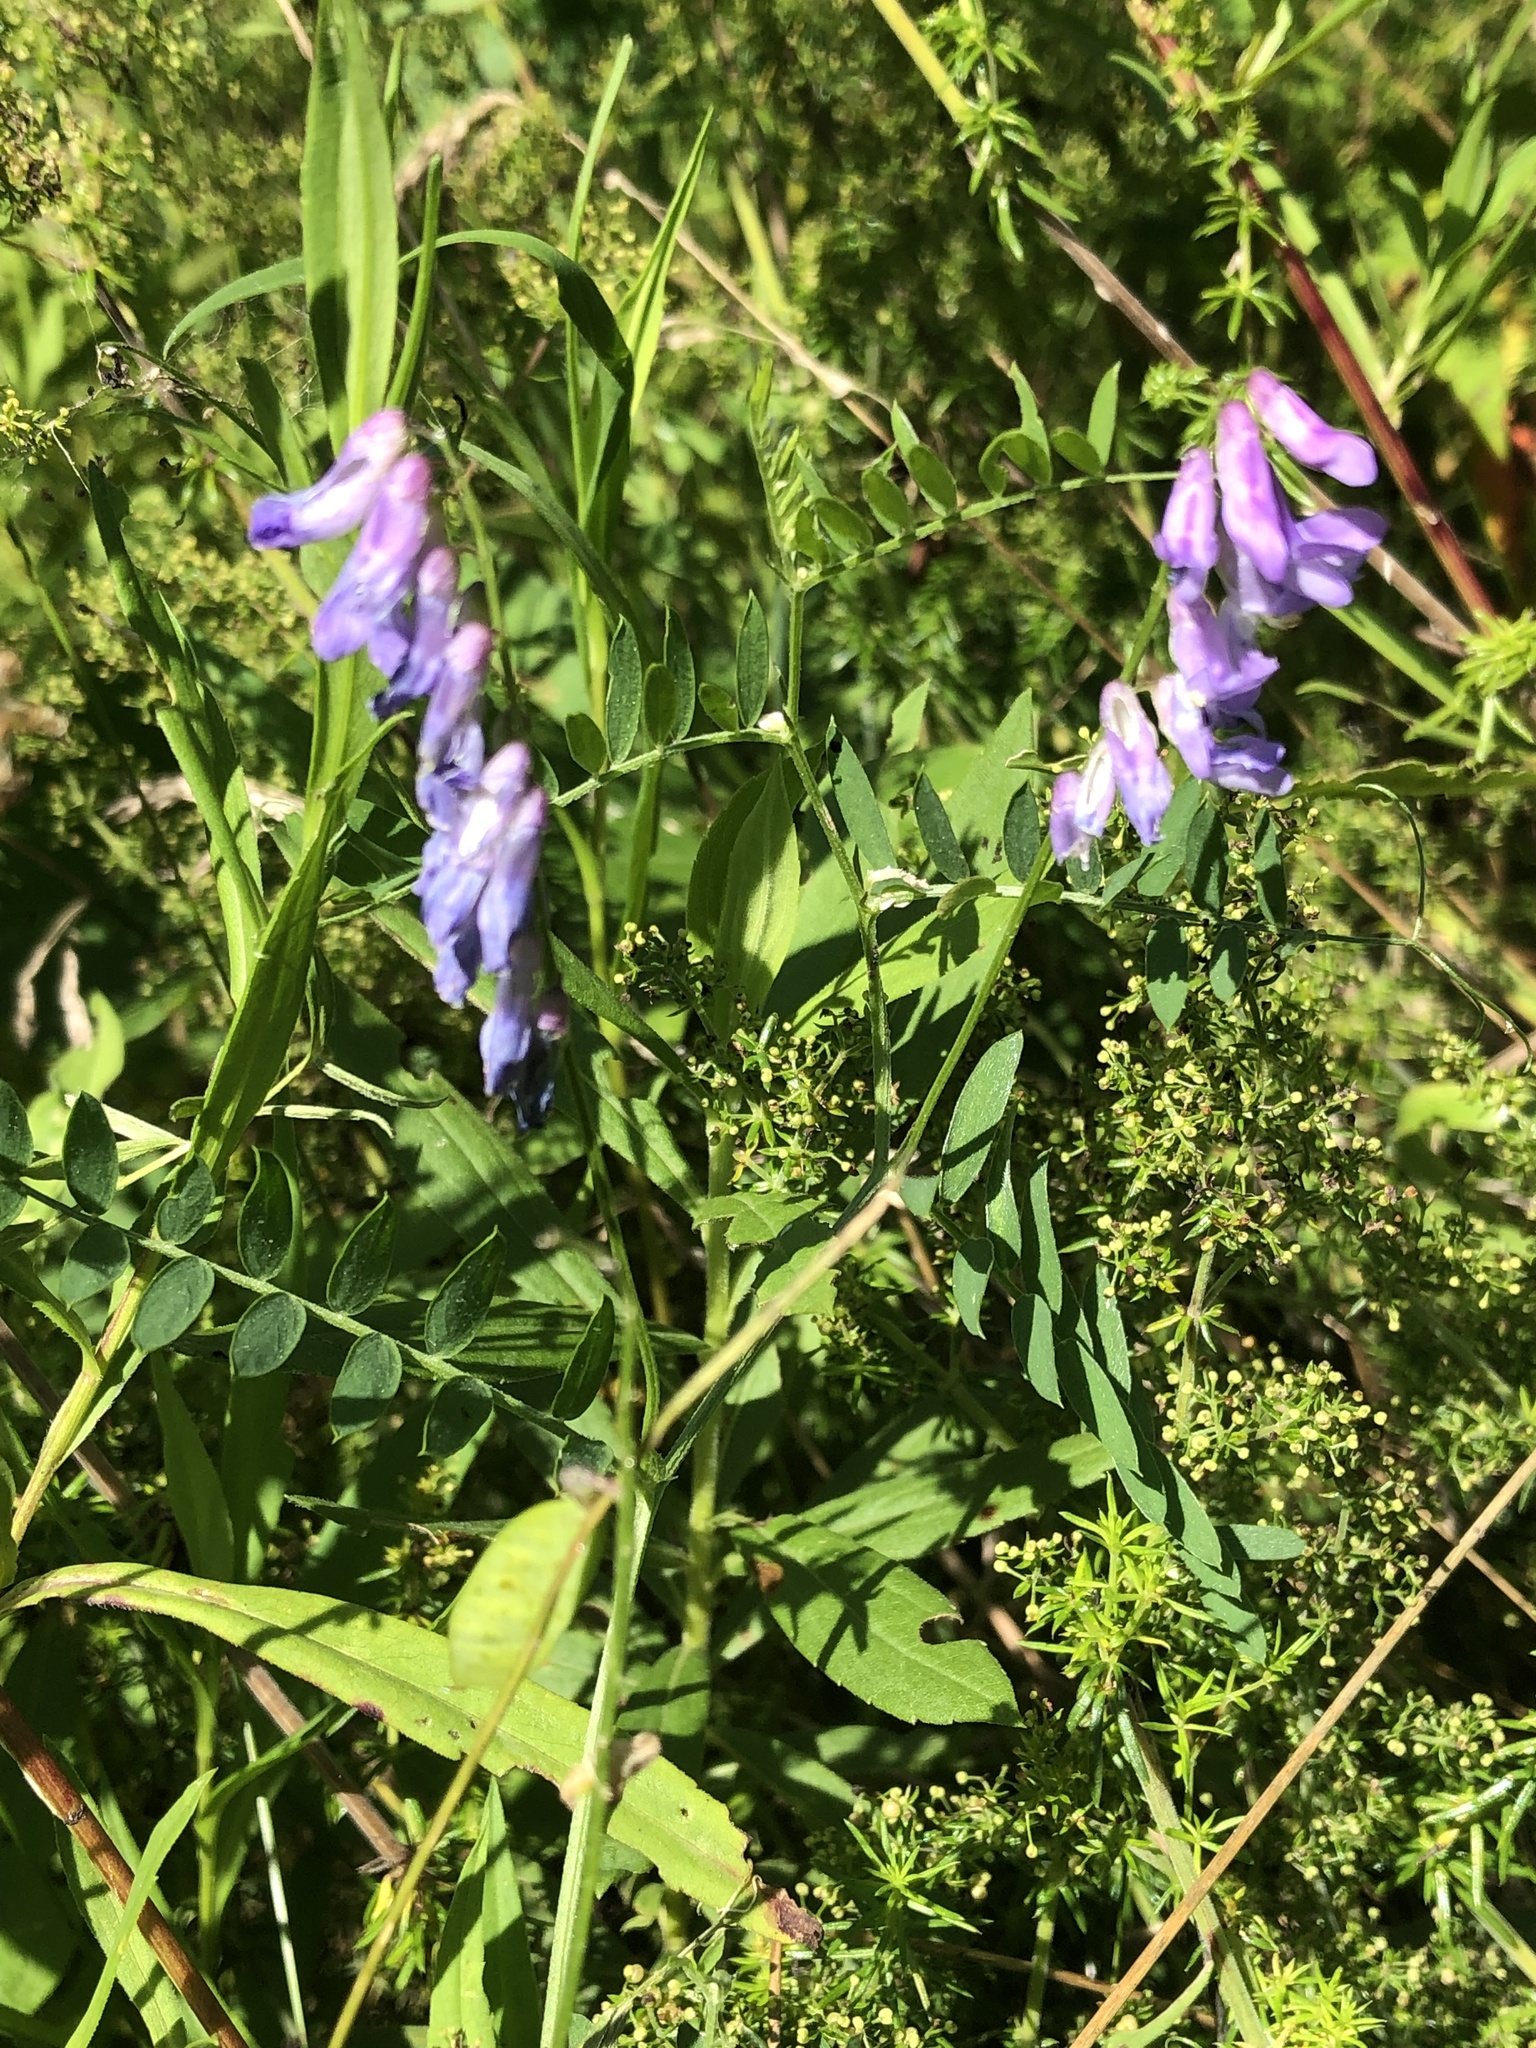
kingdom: Plantae
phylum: Tracheophyta
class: Magnoliopsida
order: Fabales
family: Fabaceae
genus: Vicia
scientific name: Vicia cracca
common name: Bird vetch
